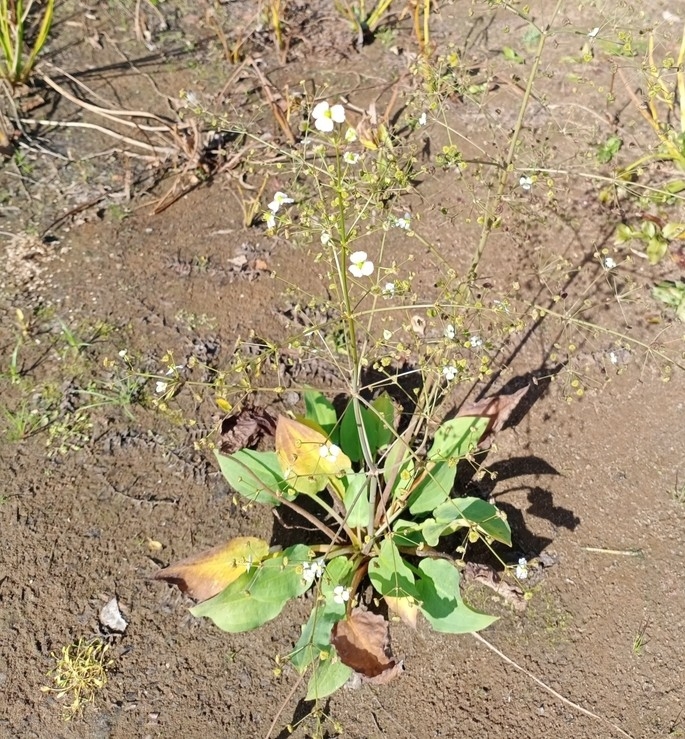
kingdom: Plantae
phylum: Tracheophyta
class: Liliopsida
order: Alismatales
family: Alismataceae
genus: Alisma
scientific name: Alisma plantago-aquatica
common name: Water-plantain
